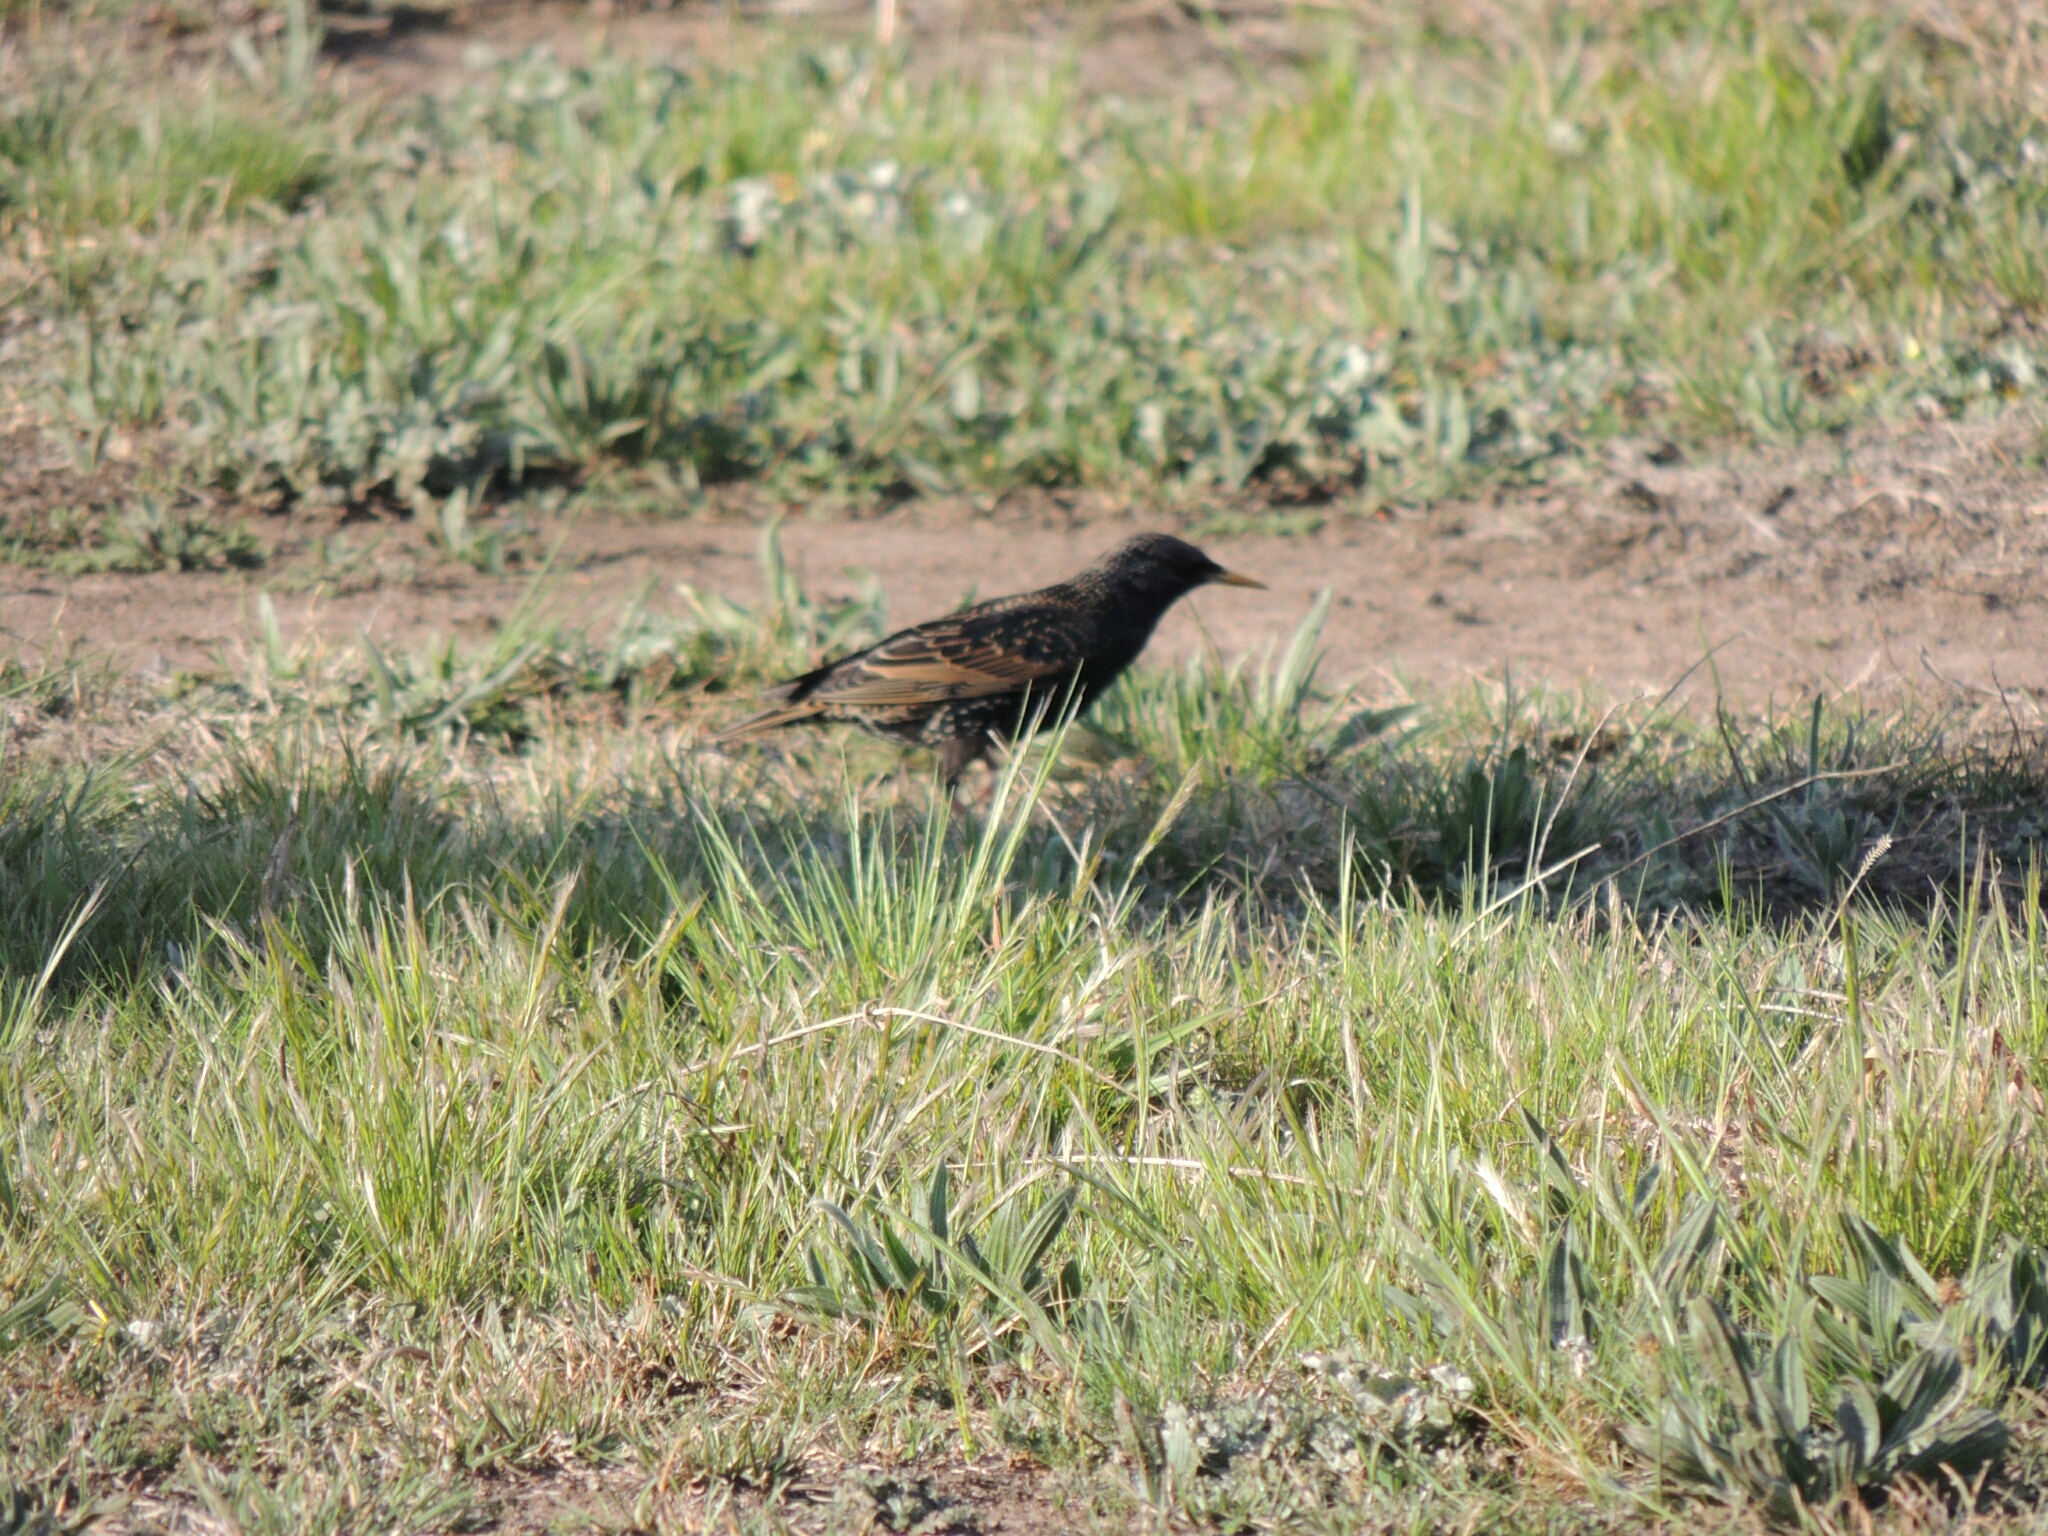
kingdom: Animalia
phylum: Chordata
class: Aves
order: Passeriformes
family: Sturnidae
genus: Sturnus
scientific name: Sturnus vulgaris
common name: Common starling
